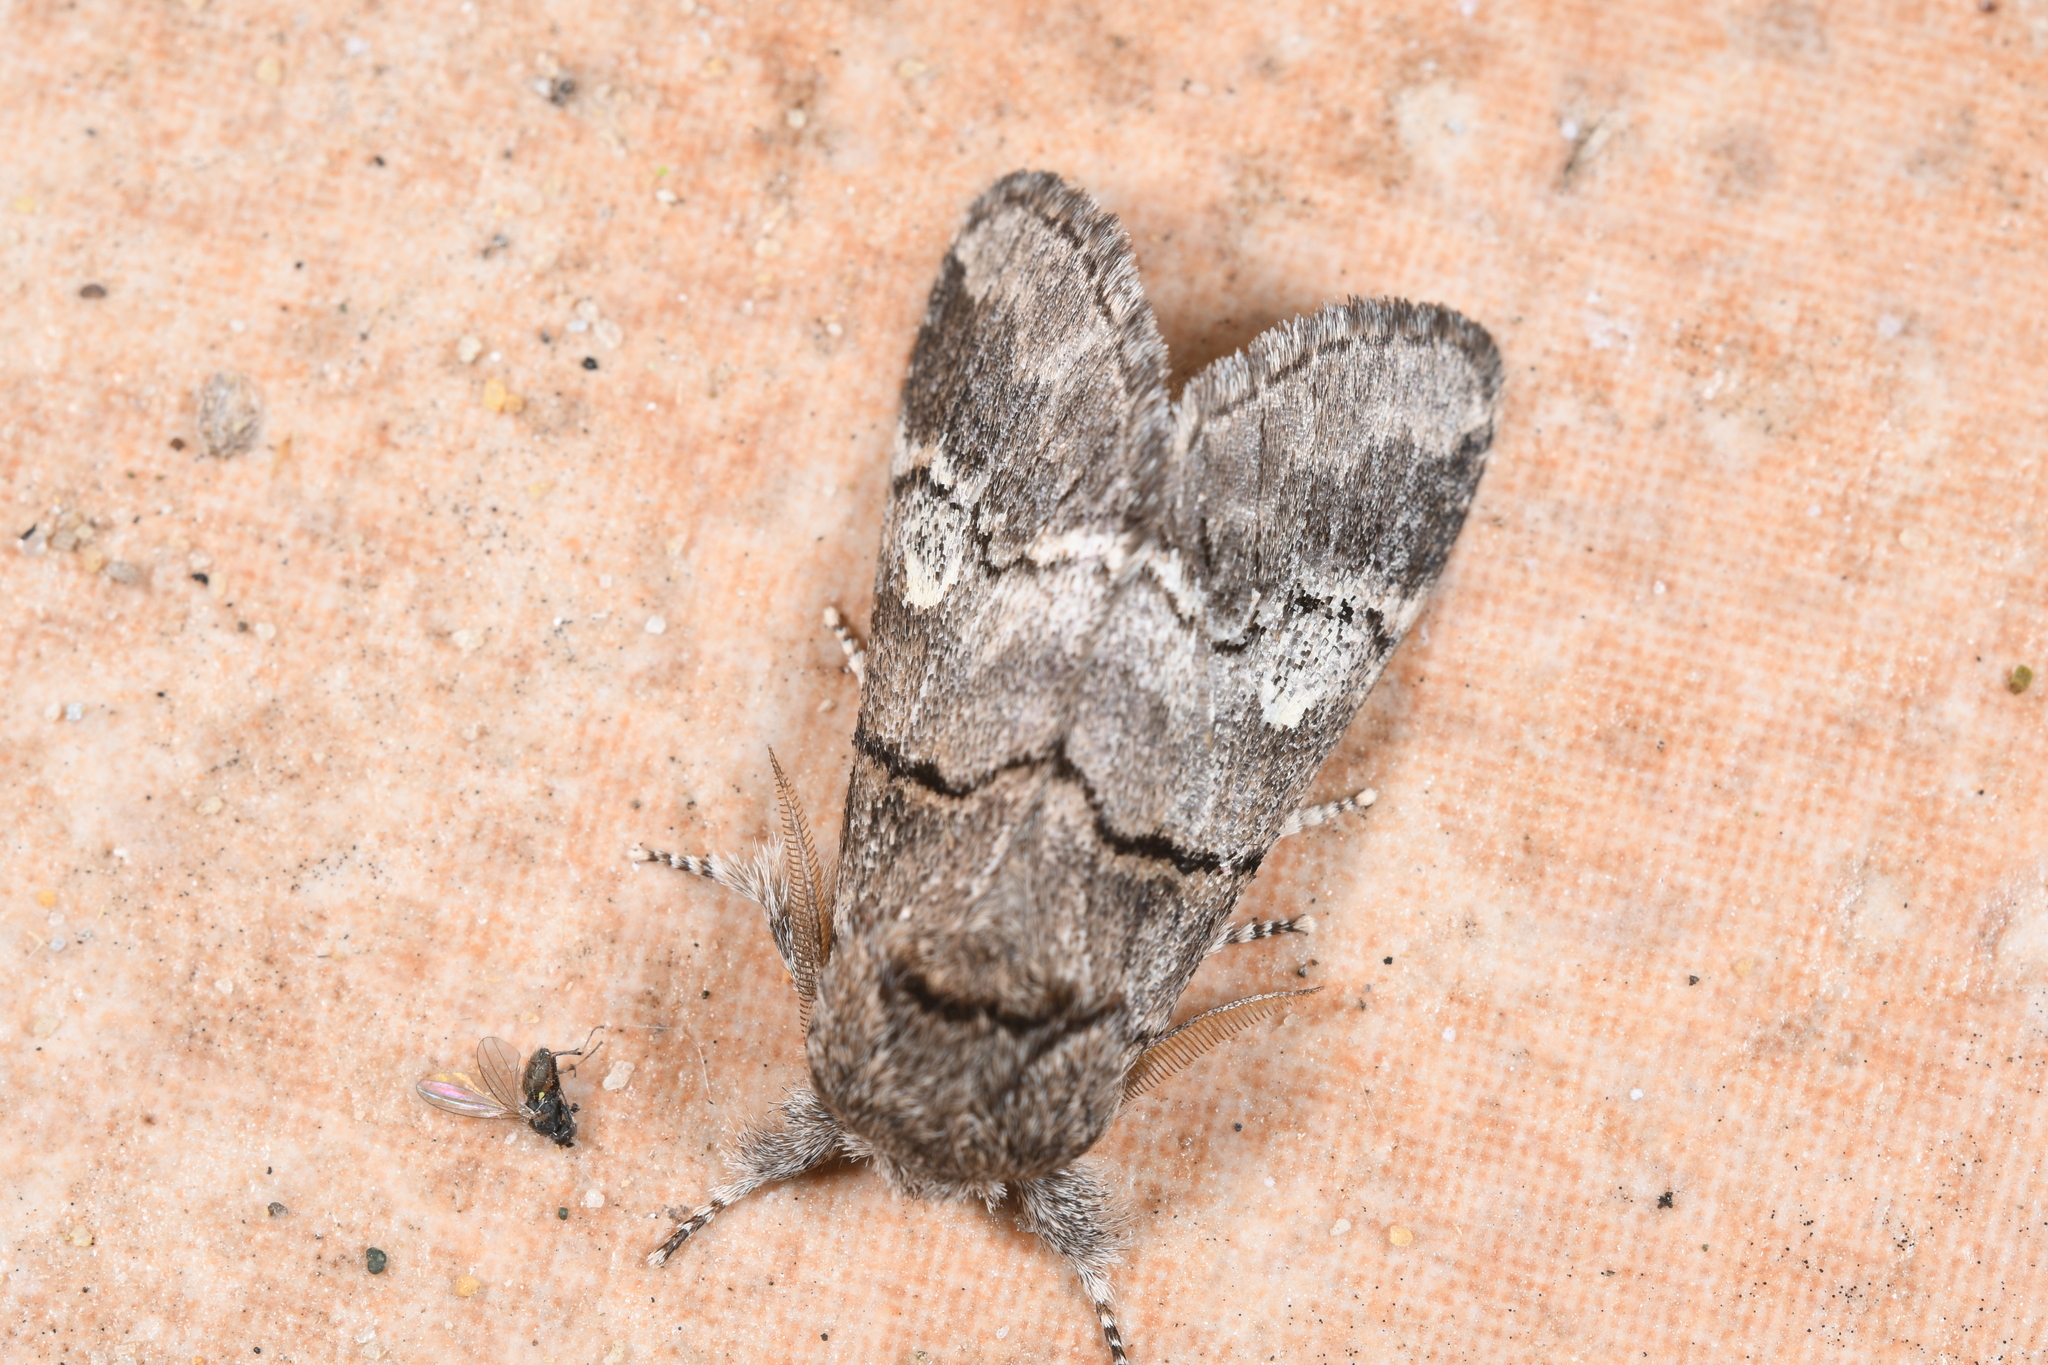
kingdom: Animalia
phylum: Arthropoda
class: Insecta
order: Lepidoptera
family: Notodontidae
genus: Drymonia
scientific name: Drymonia querna
